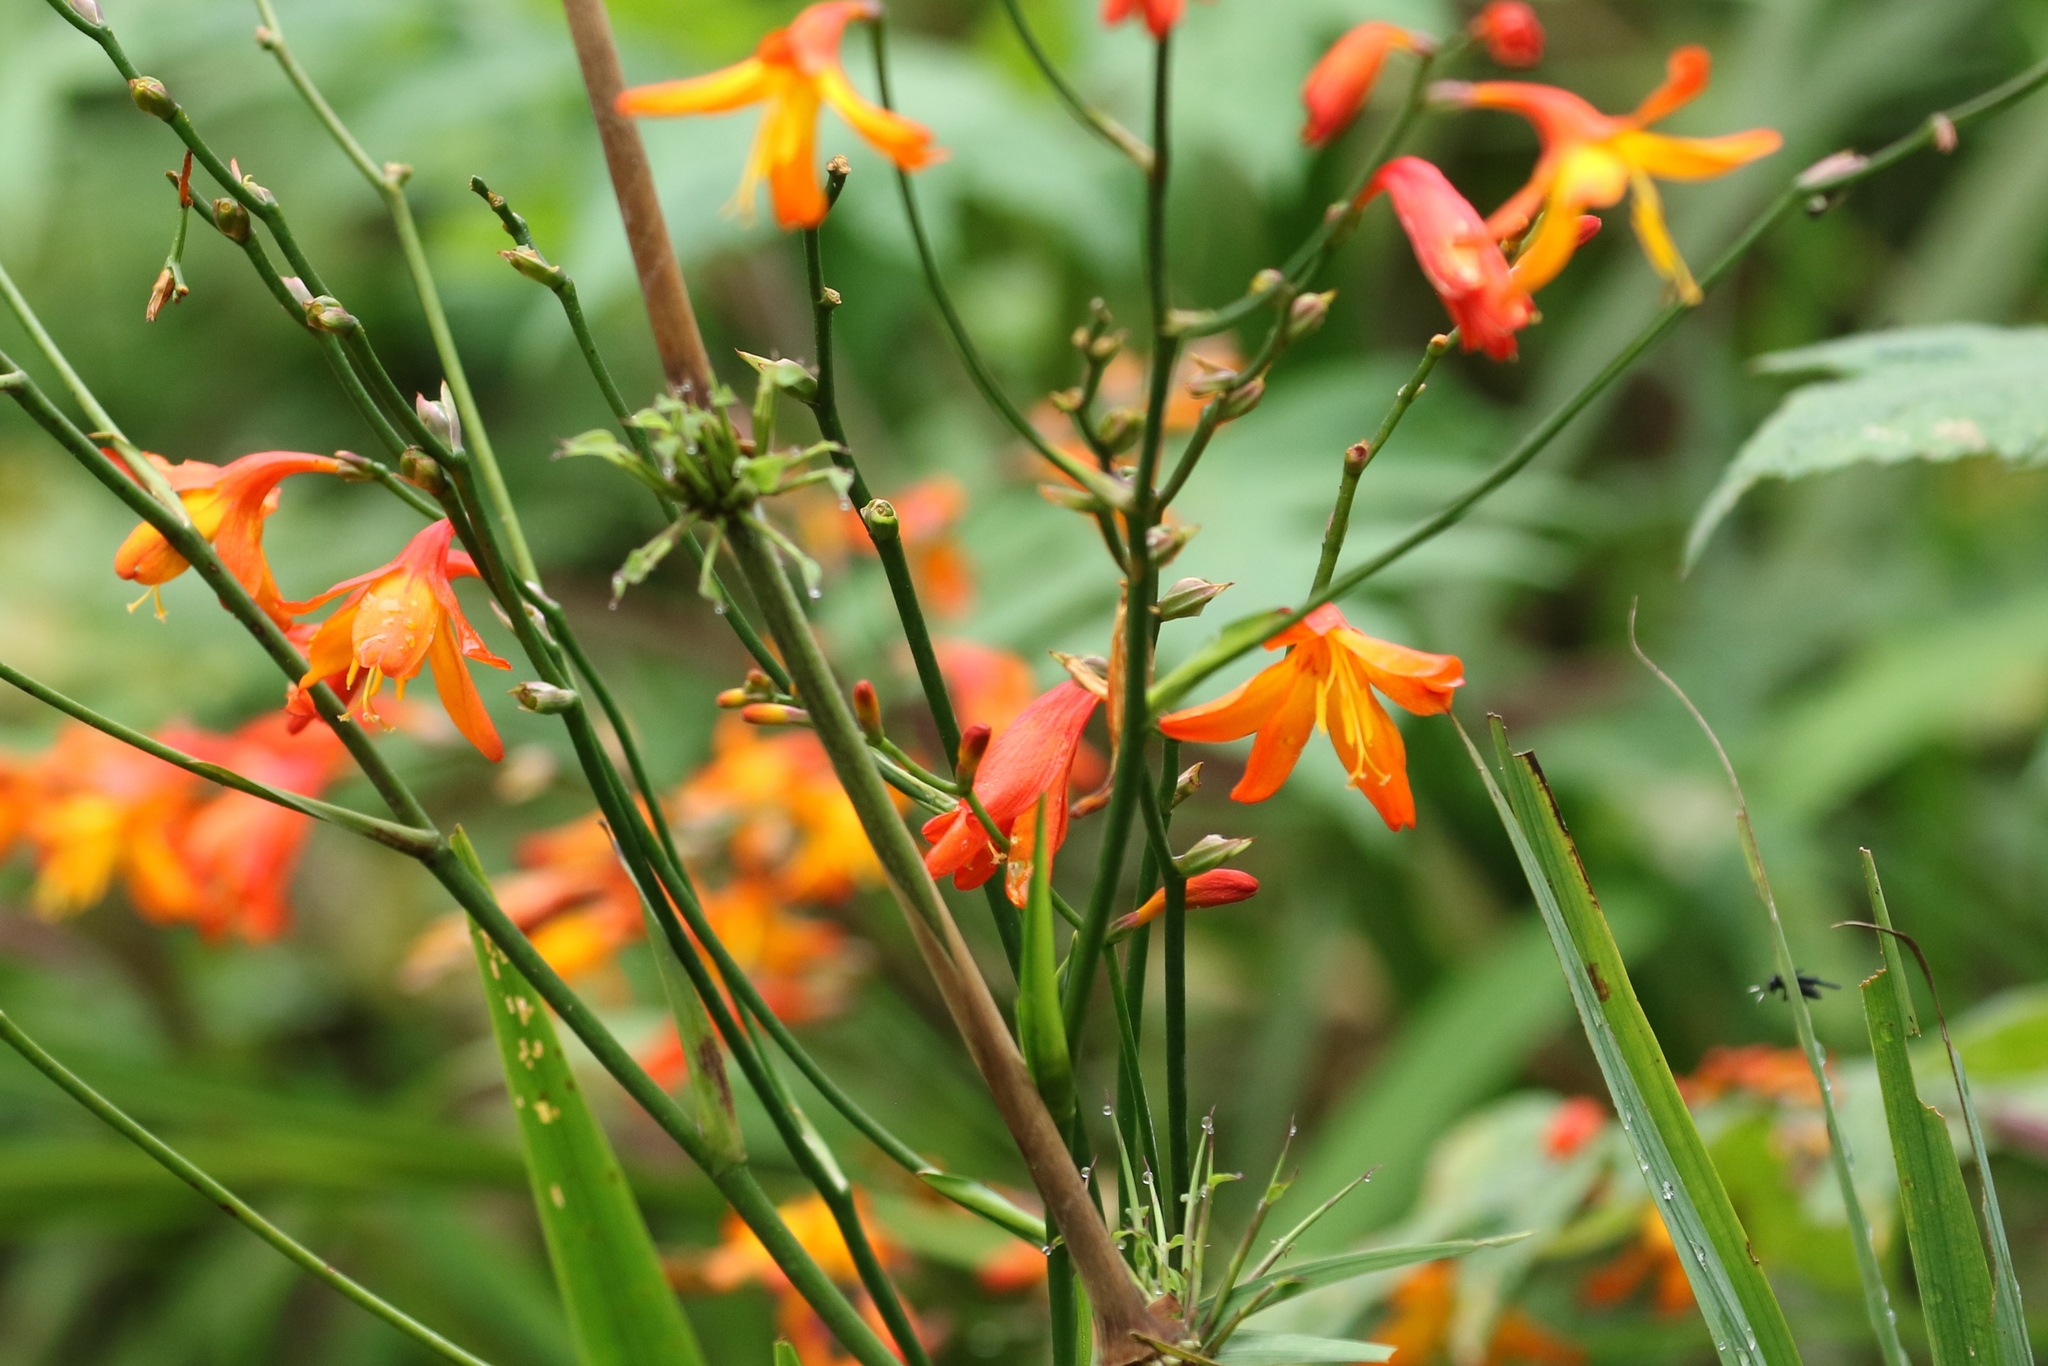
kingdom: Plantae
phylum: Tracheophyta
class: Liliopsida
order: Asparagales
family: Iridaceae
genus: Crocosmia
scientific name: Crocosmia crocosmiiflora
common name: Montbretia
